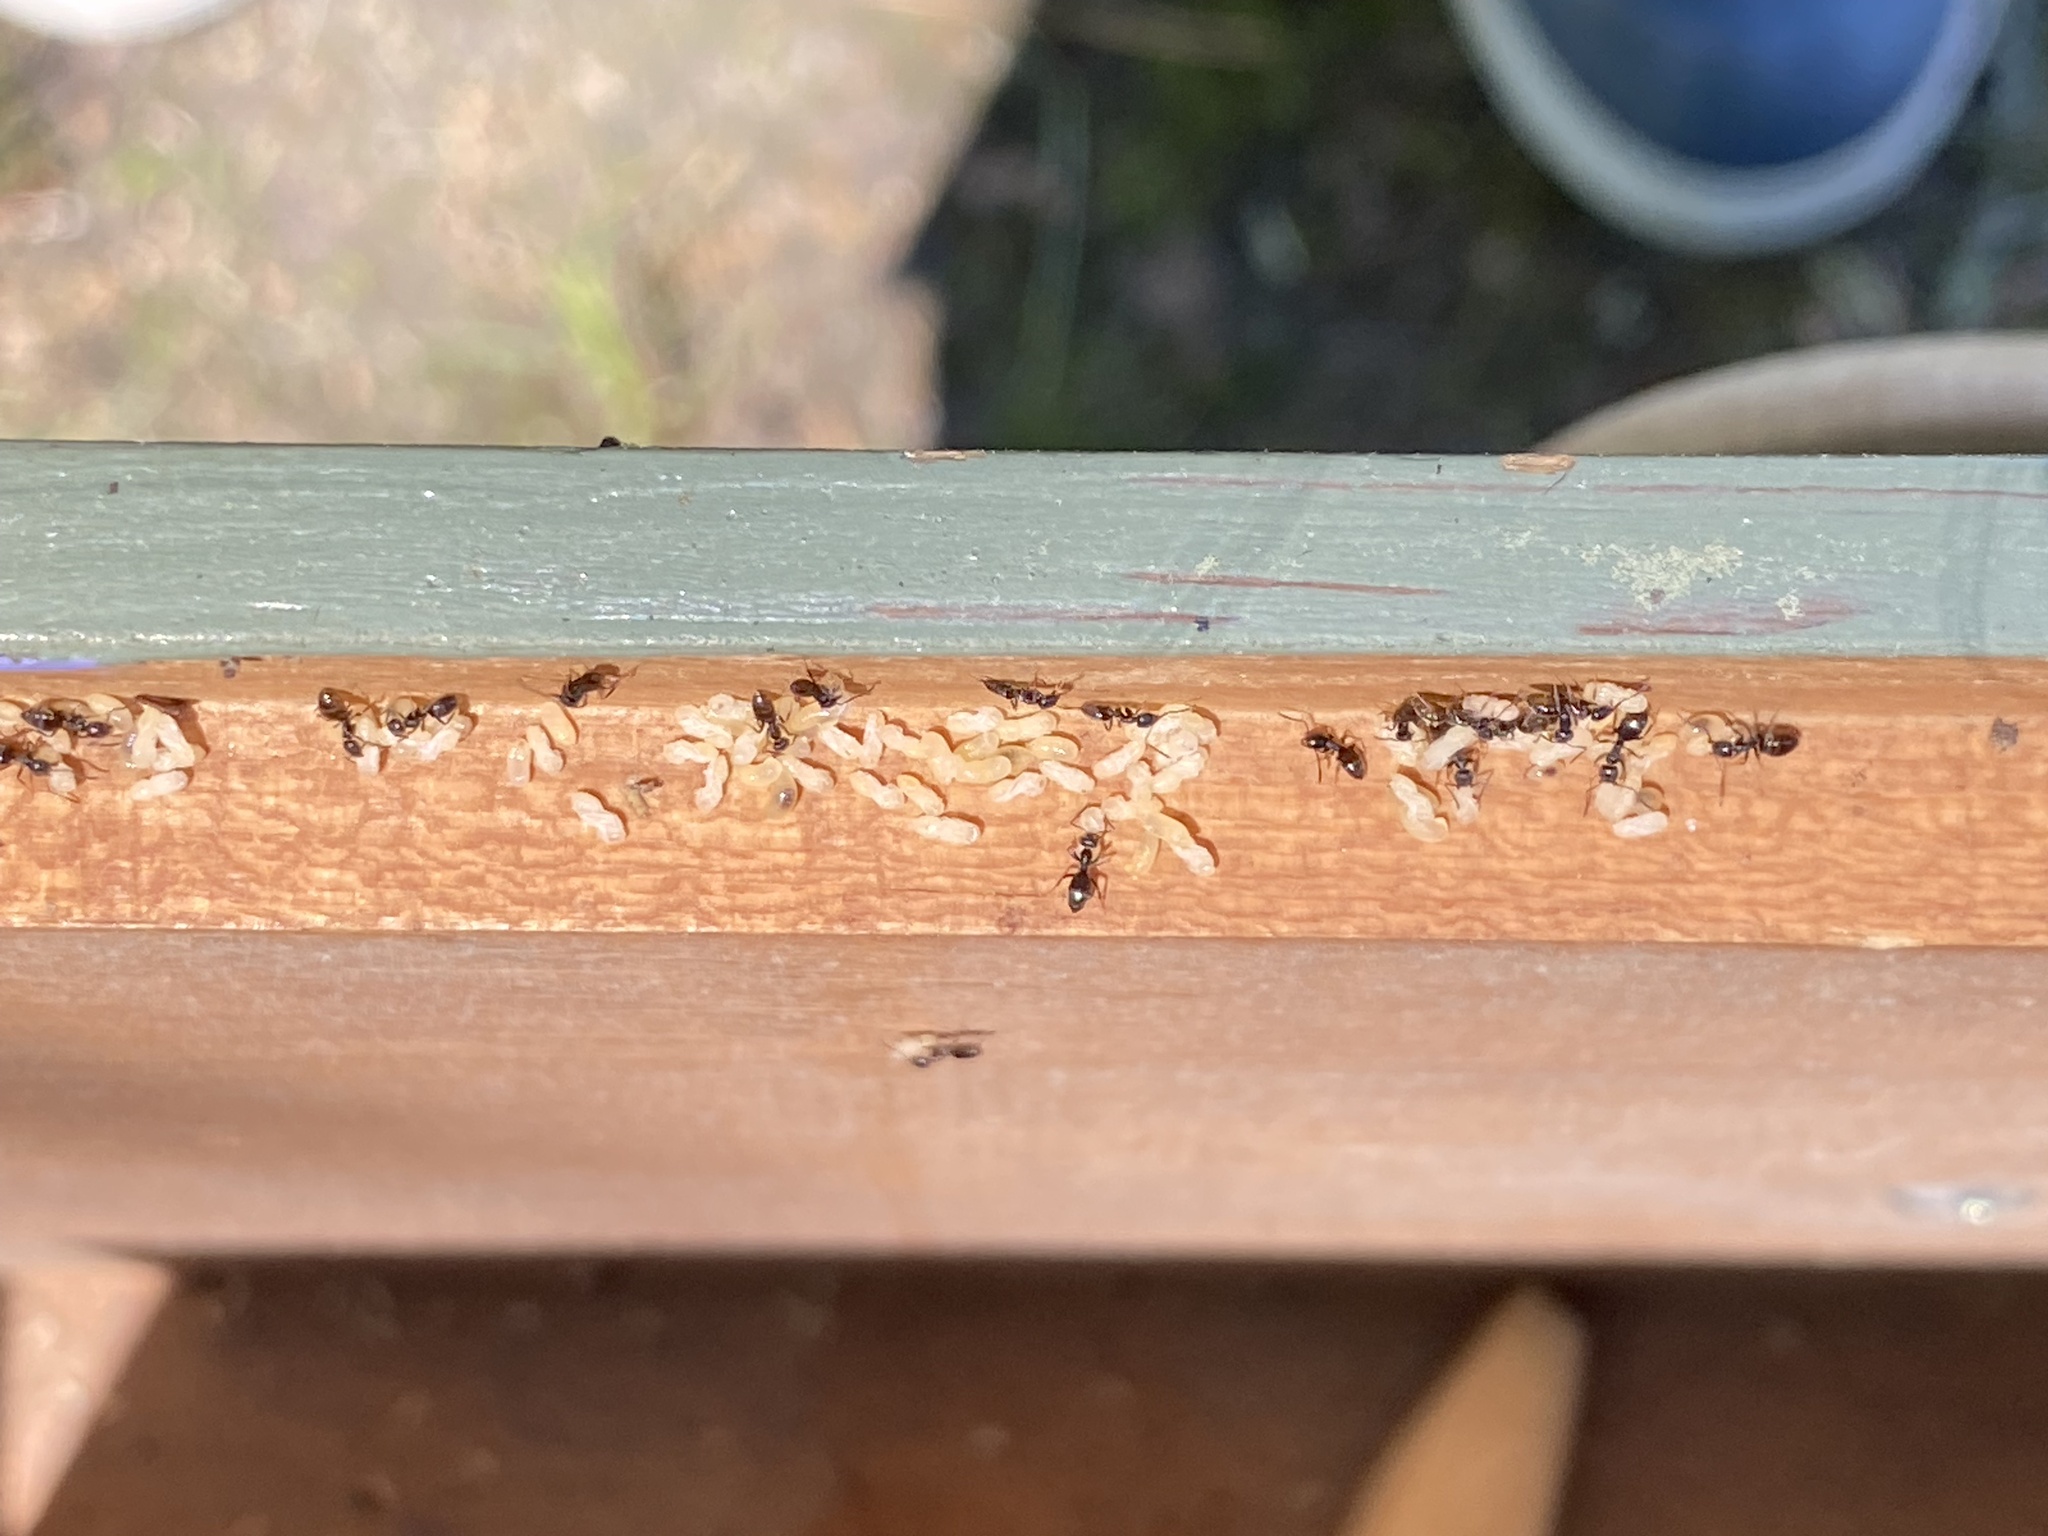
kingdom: Animalia
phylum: Arthropoda
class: Insecta
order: Hymenoptera
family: Formicidae
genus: Tapinoma
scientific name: Tapinoma sessile
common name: Odorous house ant
